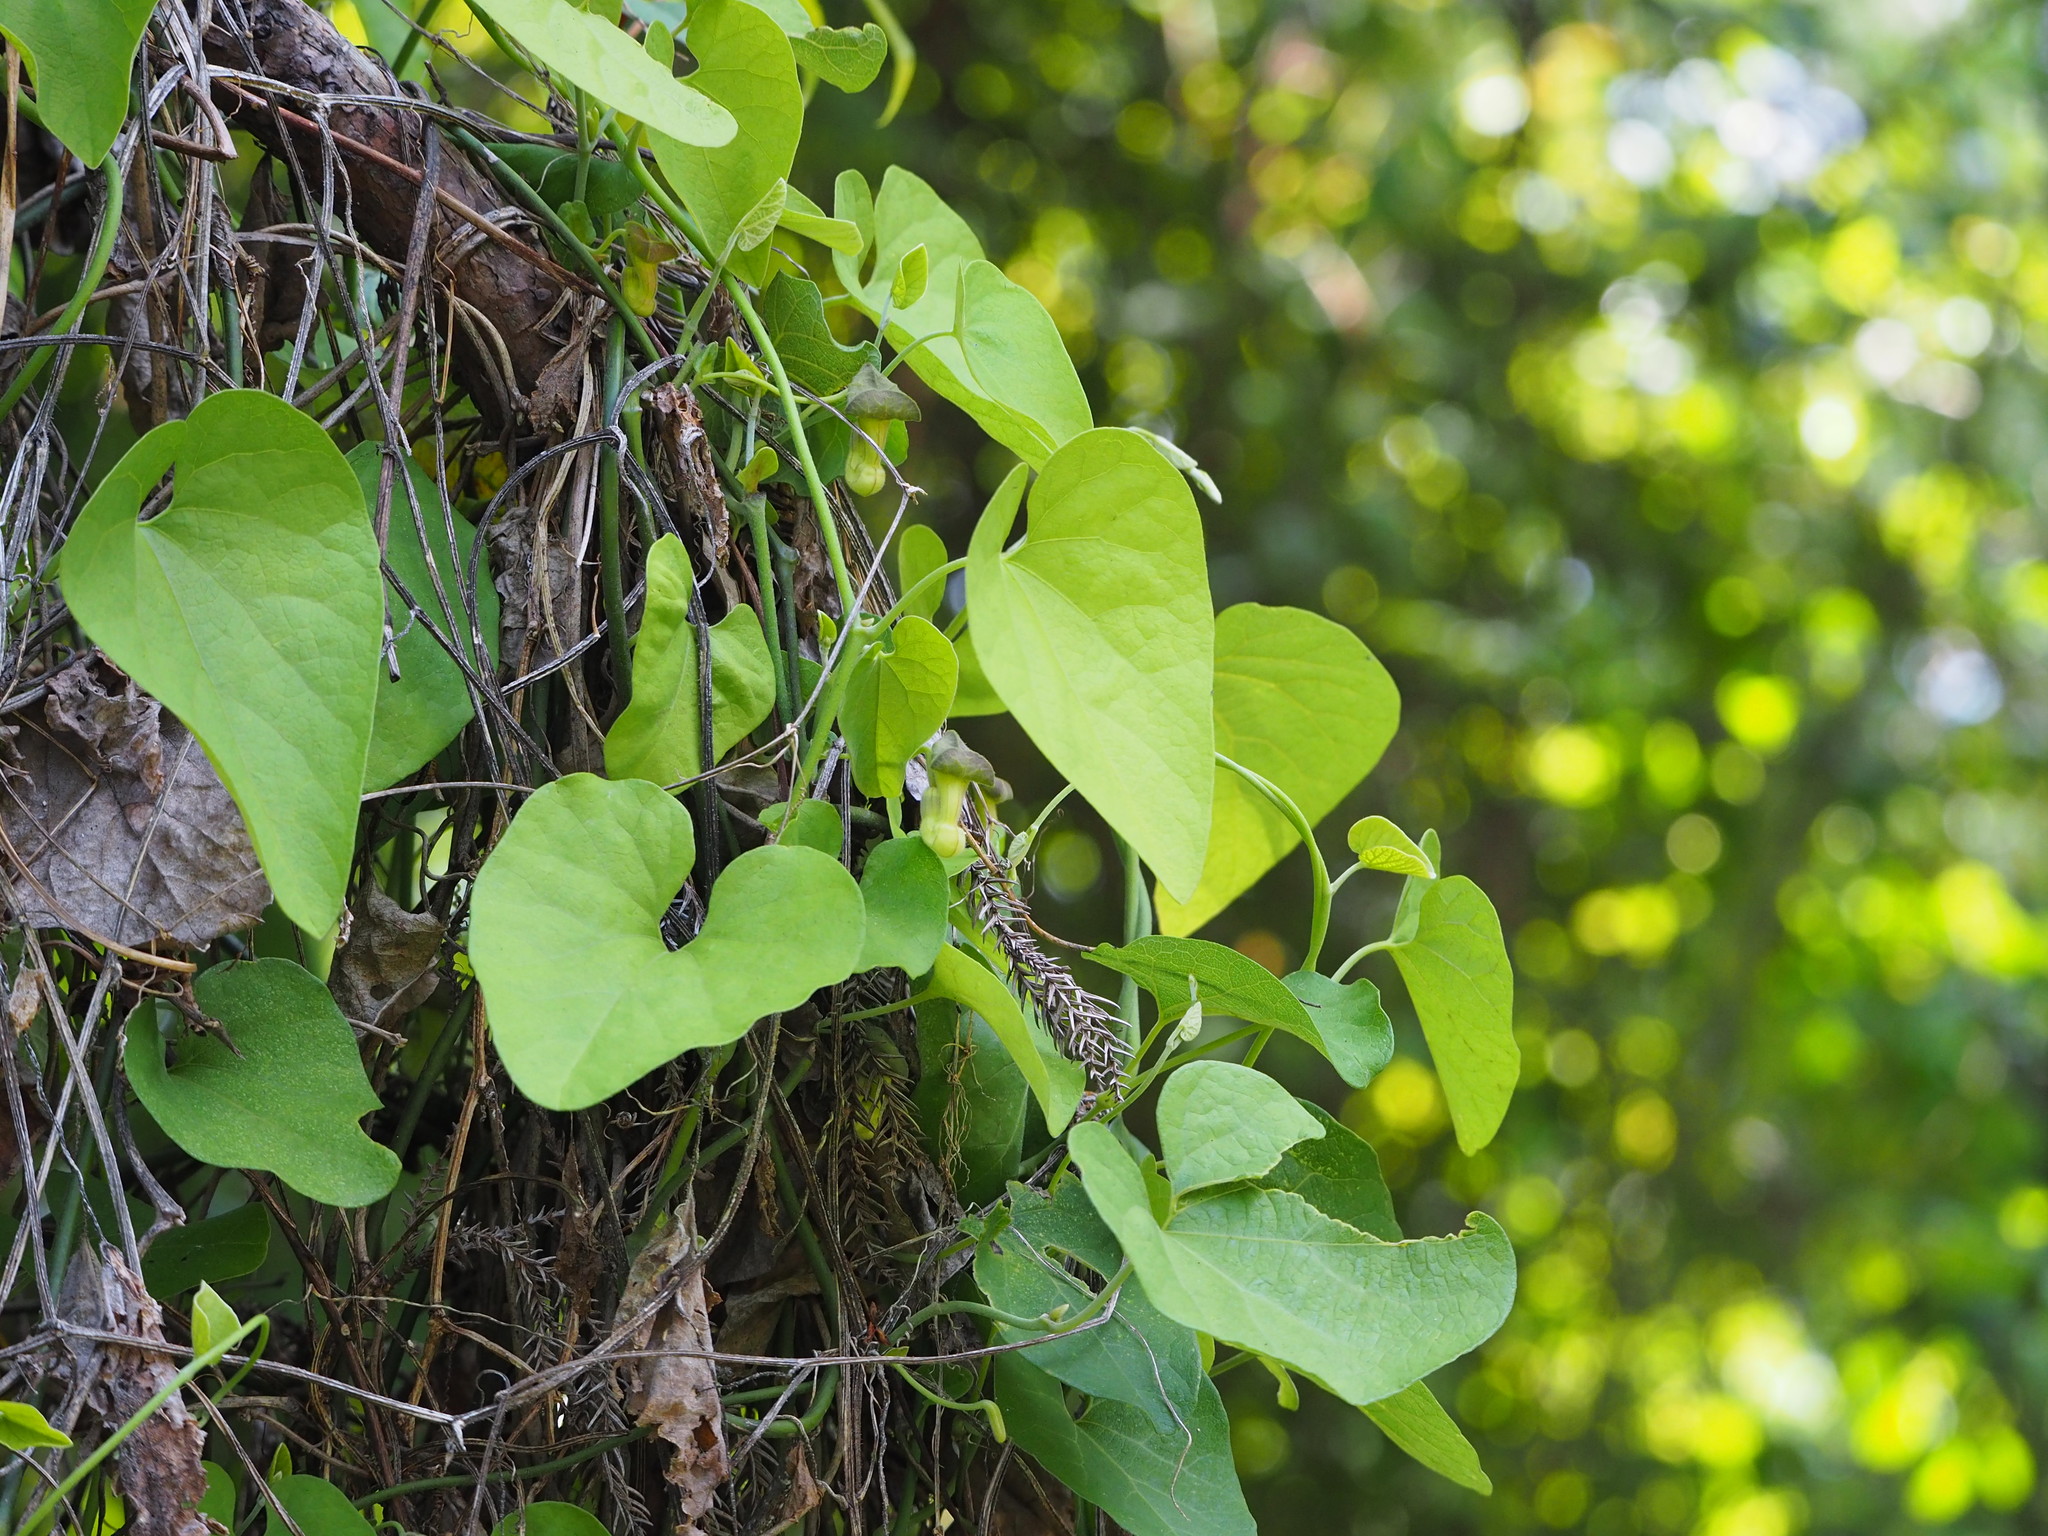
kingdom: Plantae
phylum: Tracheophyta
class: Magnoliopsida
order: Piperales
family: Aristolochiaceae
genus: Isotrema
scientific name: Isotrema shimadae
